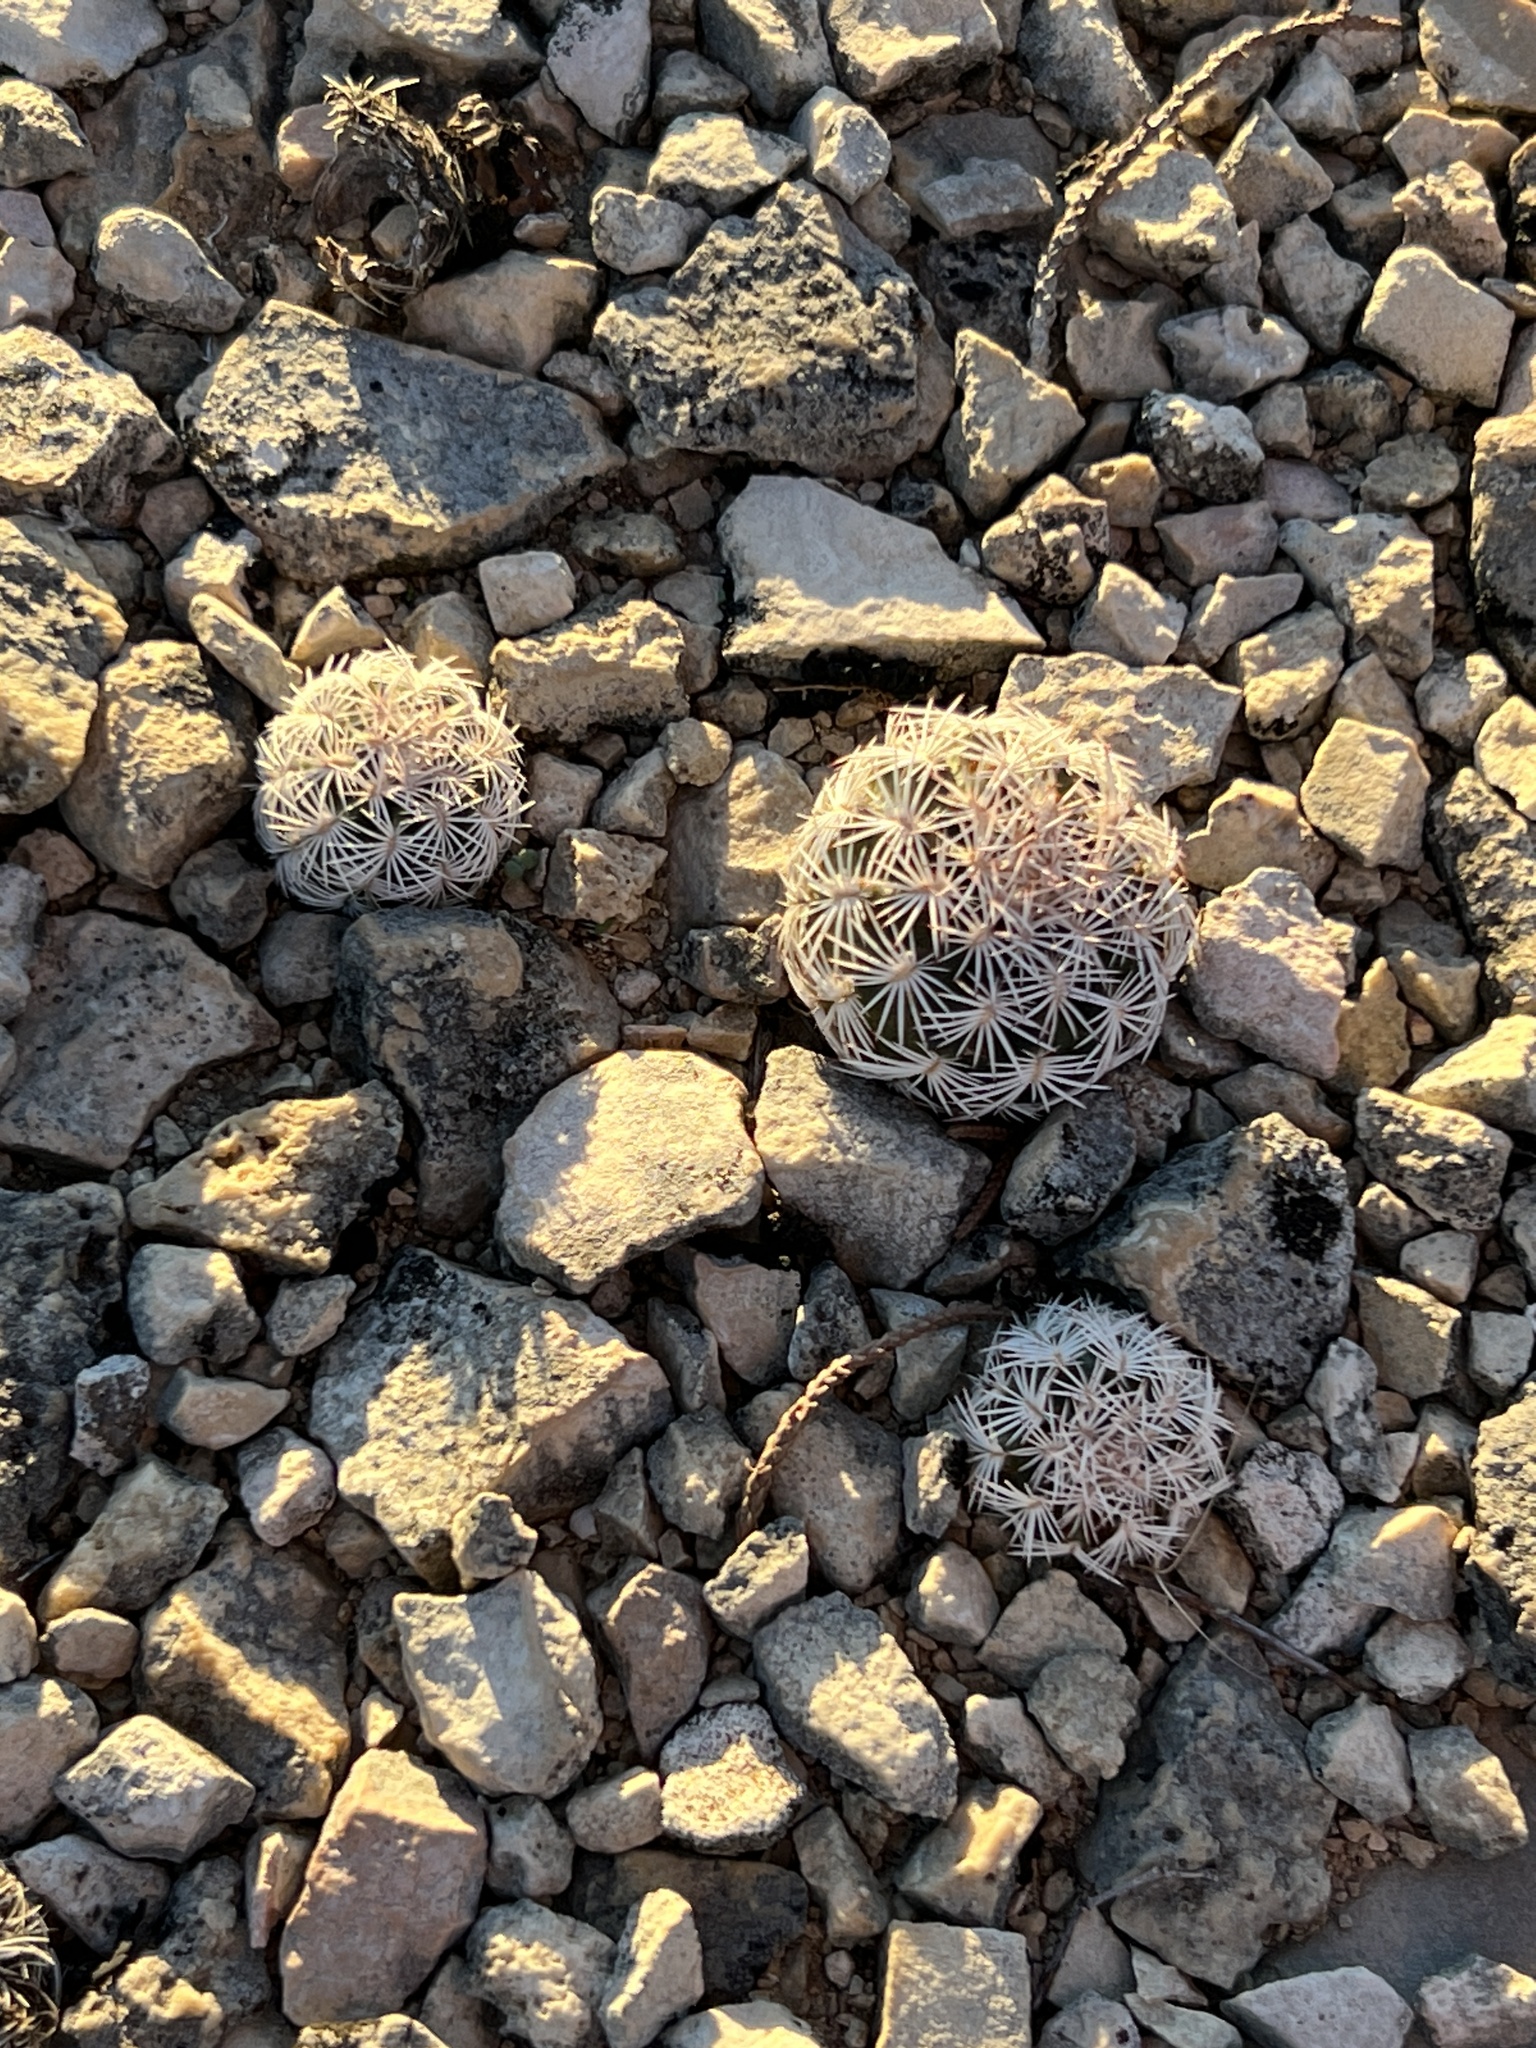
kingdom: Plantae
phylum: Tracheophyta
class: Magnoliopsida
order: Caryophyllales
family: Cactaceae
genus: Echinocereus
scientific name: Echinocereus reichenbachii
